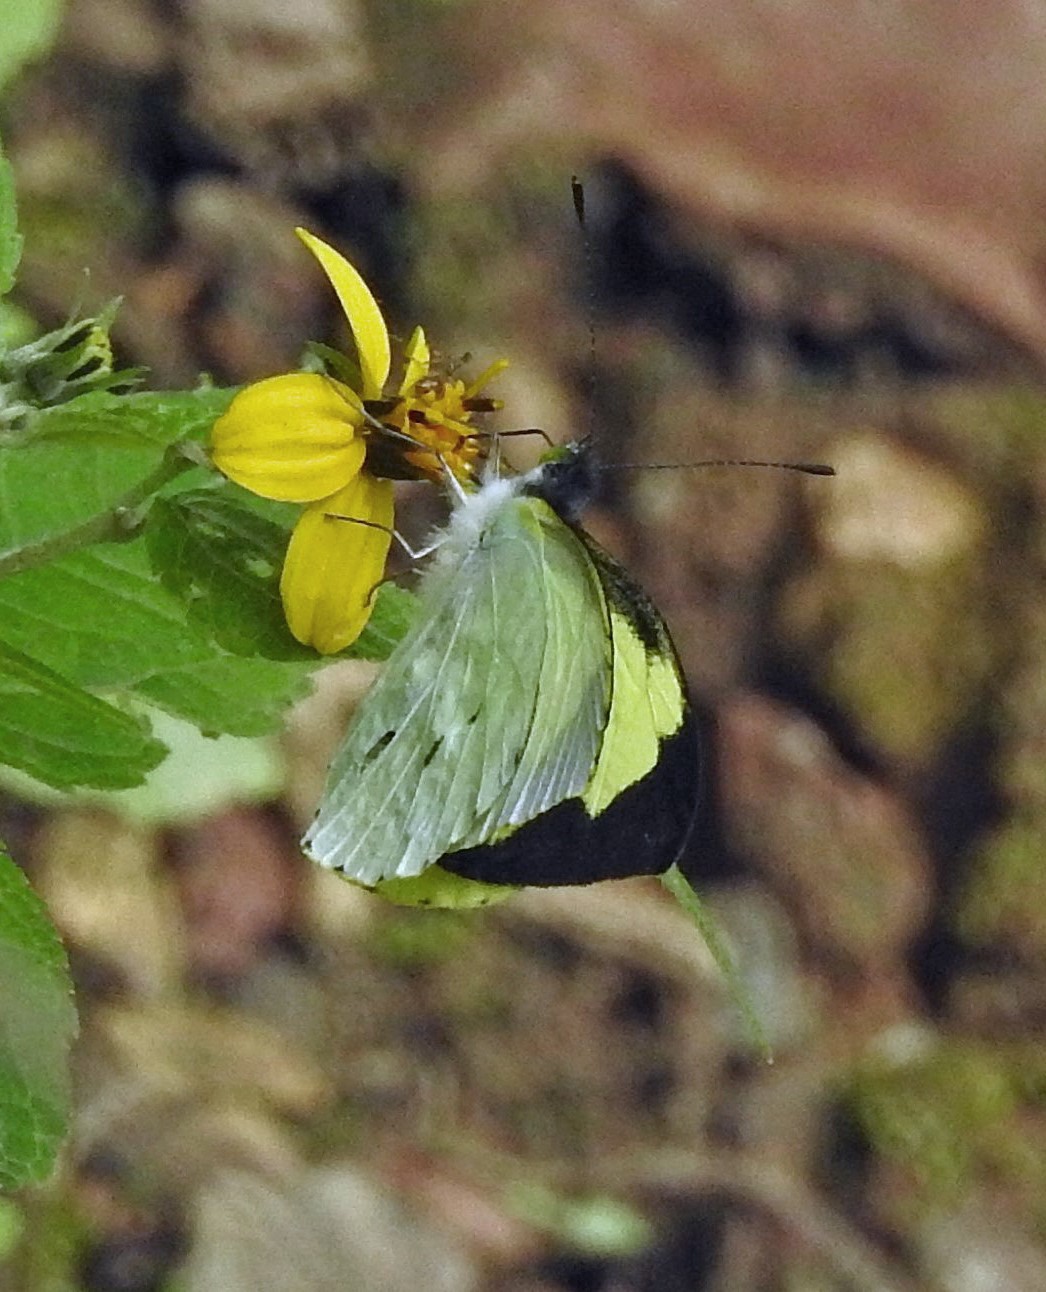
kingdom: Animalia
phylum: Arthropoda
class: Insecta
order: Lepidoptera
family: Pieridae
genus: Leptophobia
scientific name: Leptophobia diaguita
